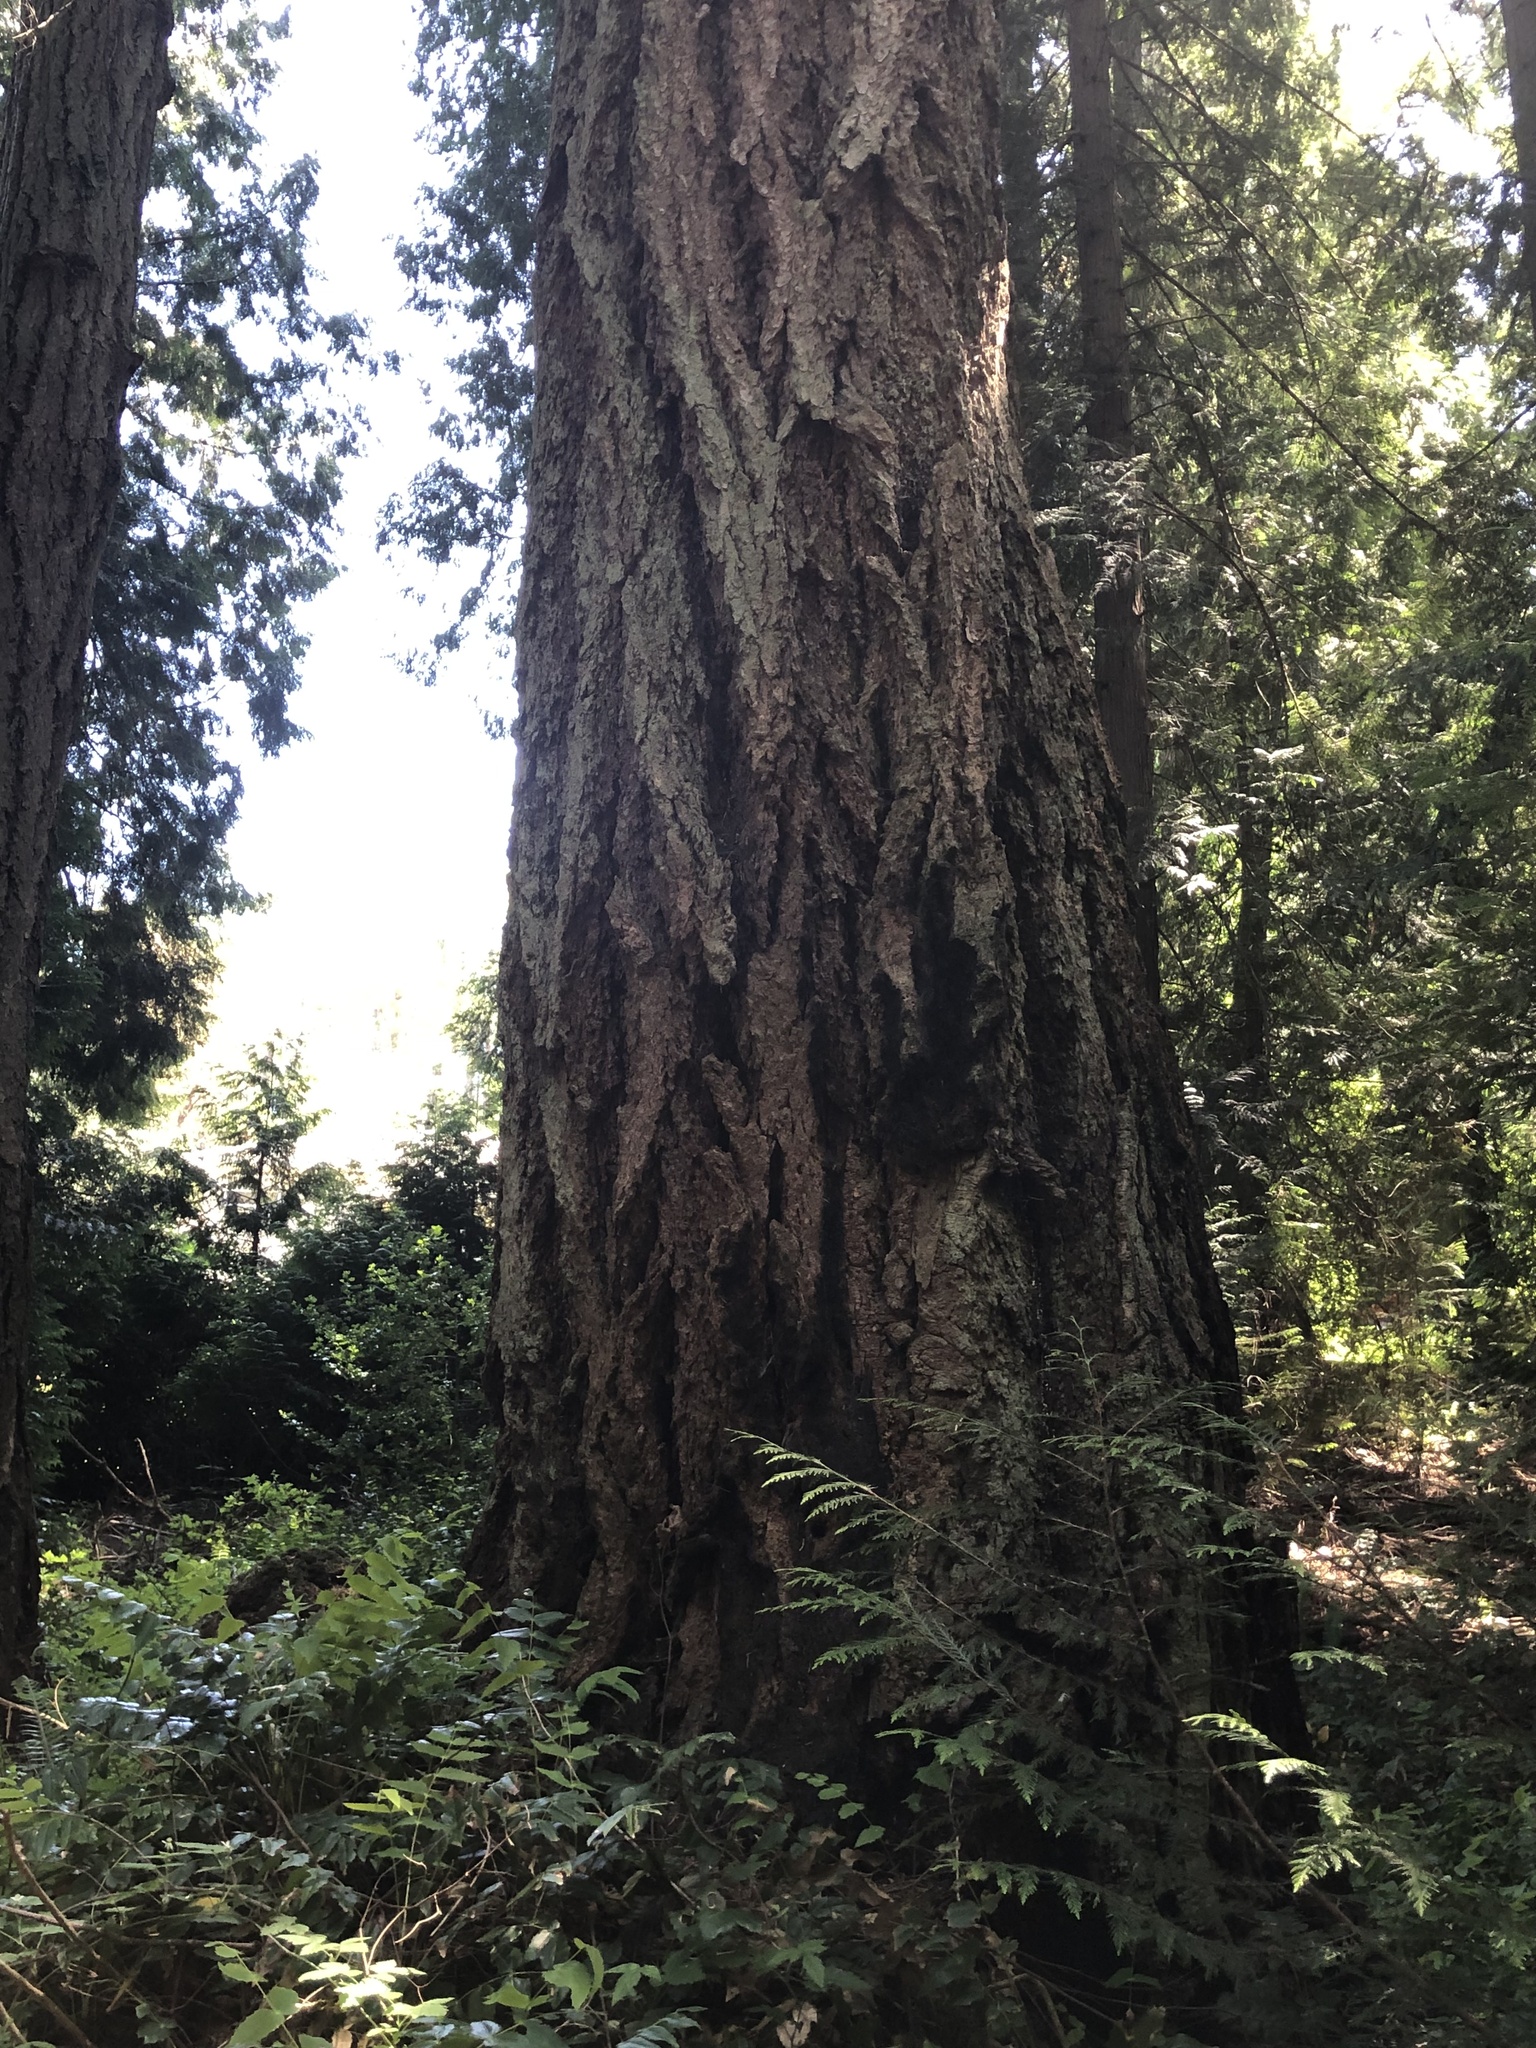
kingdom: Plantae
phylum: Tracheophyta
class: Pinopsida
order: Pinales
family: Pinaceae
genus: Pseudotsuga
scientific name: Pseudotsuga menziesii
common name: Douglas fir
